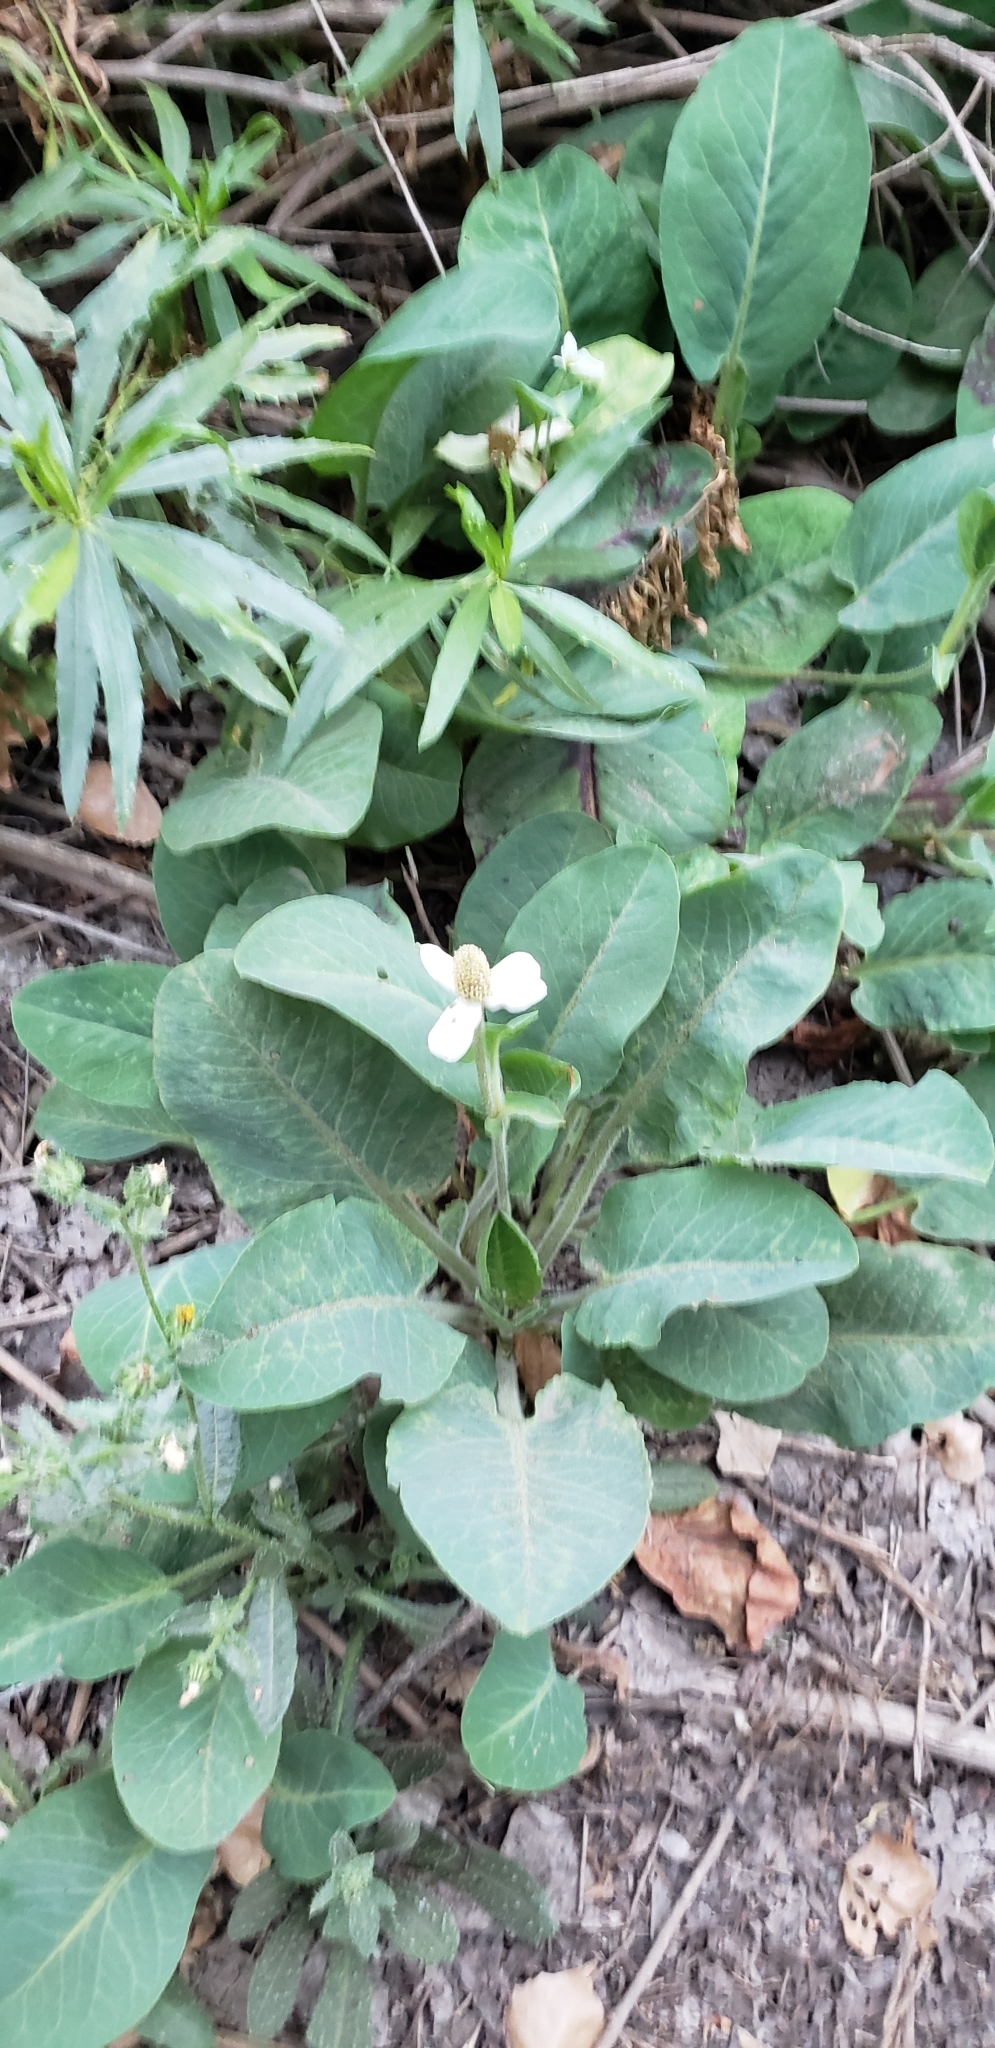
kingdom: Plantae
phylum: Tracheophyta
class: Magnoliopsida
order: Piperales
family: Saururaceae
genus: Anemopsis
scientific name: Anemopsis californica
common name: Apache-beads
